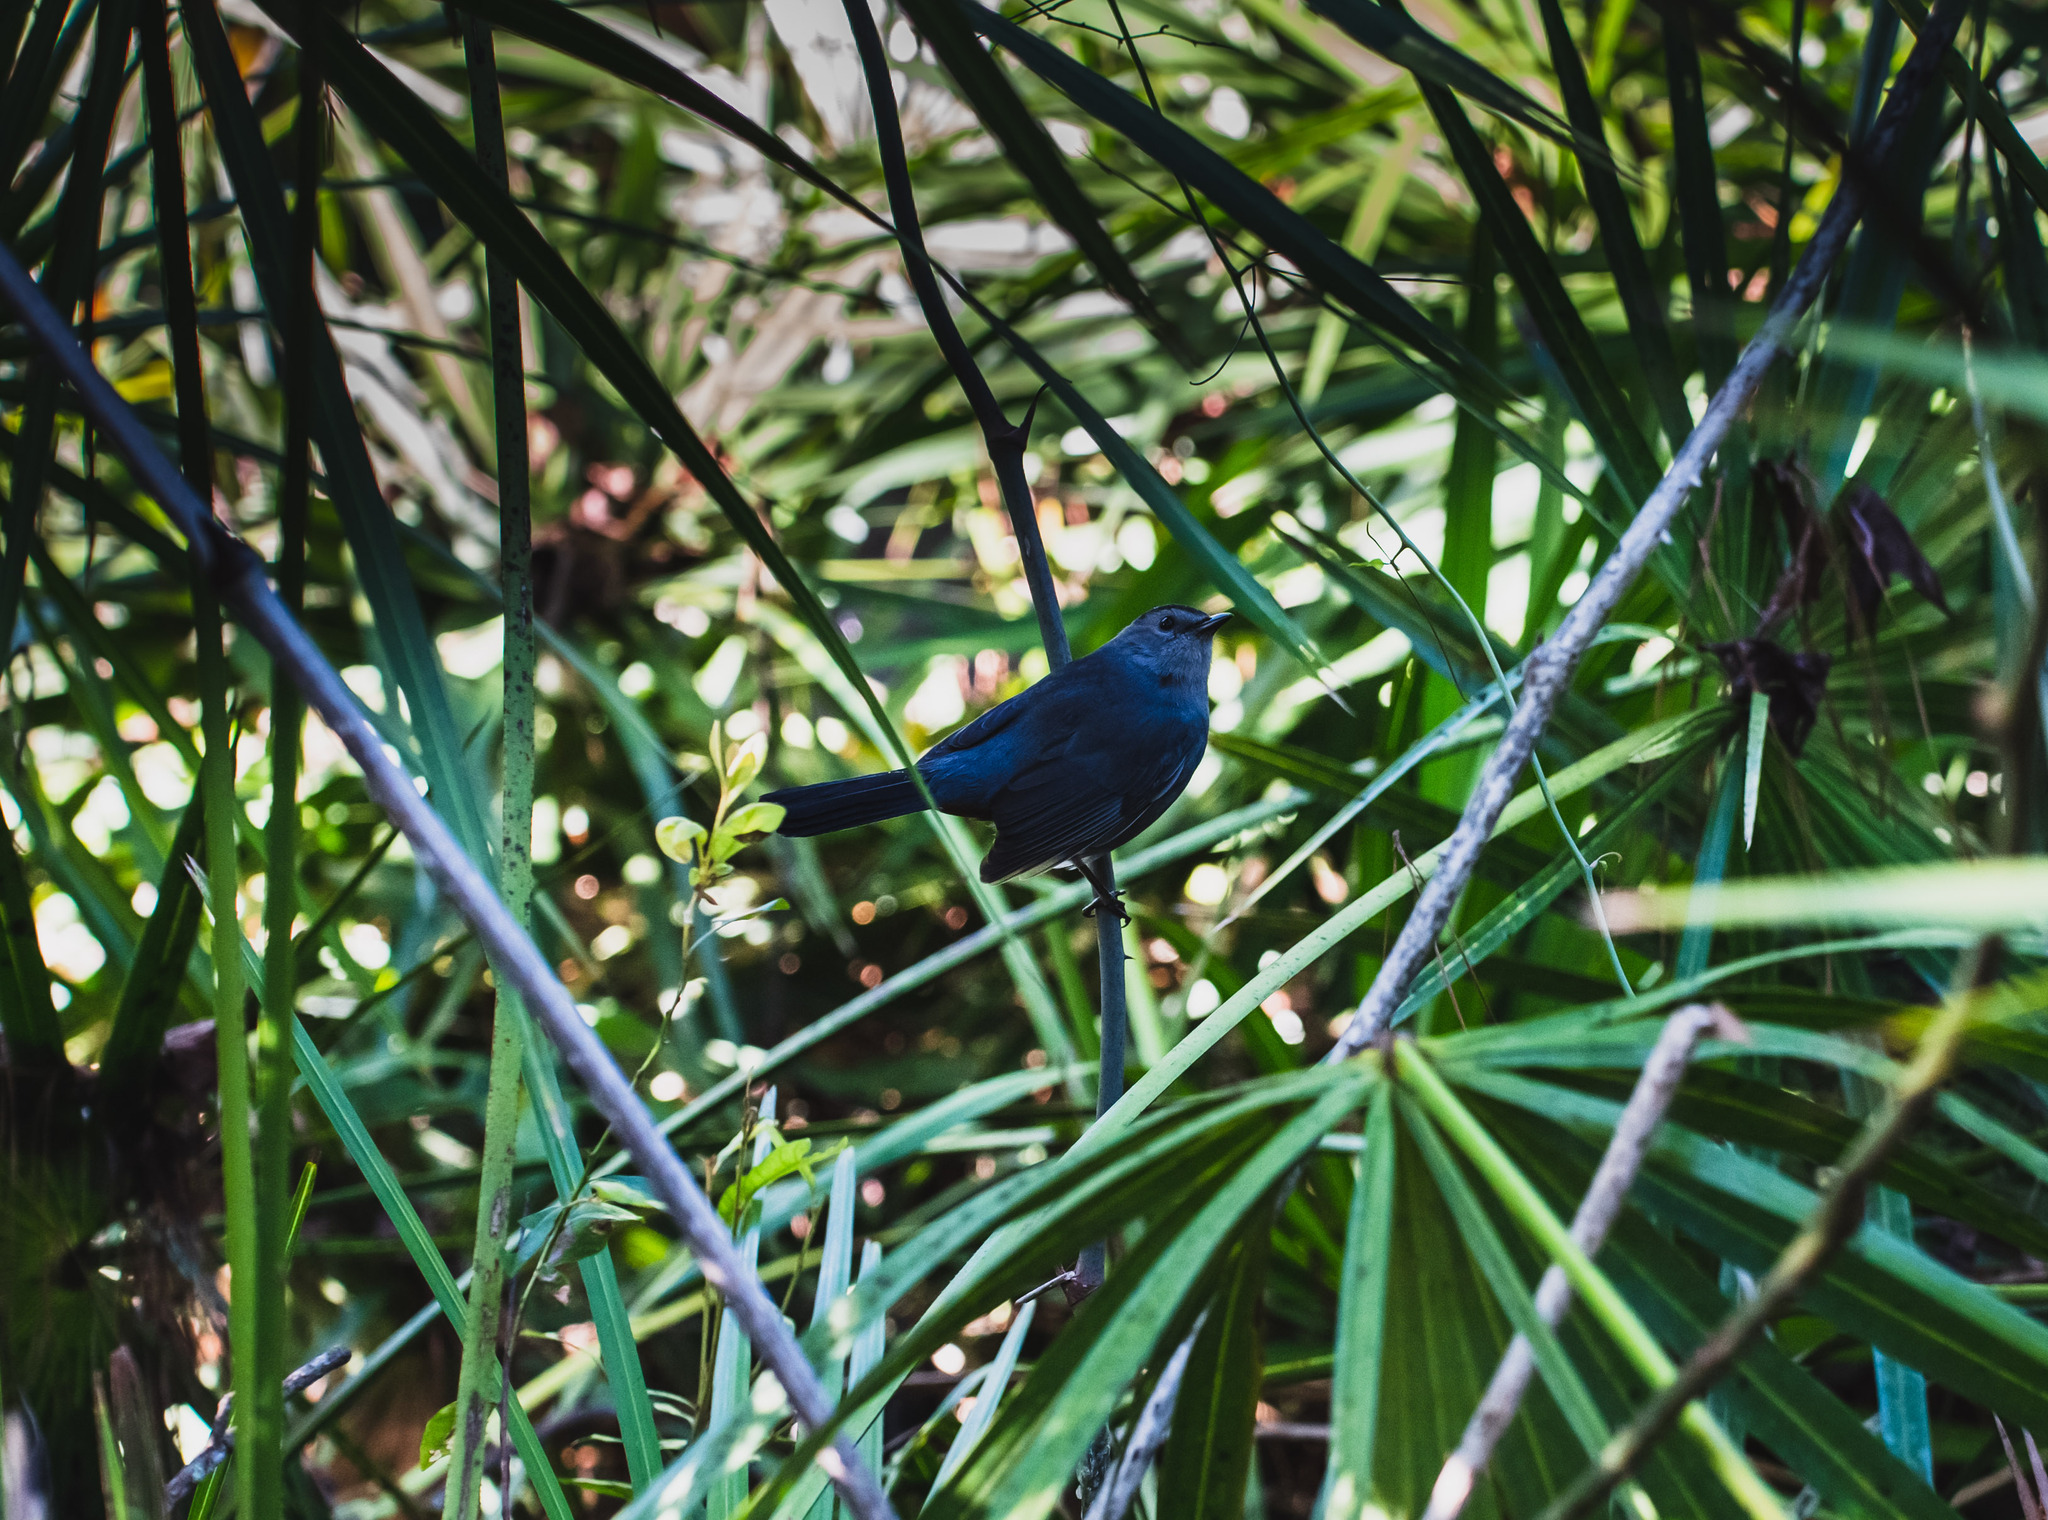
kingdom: Animalia
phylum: Chordata
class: Aves
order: Passeriformes
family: Mimidae
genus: Dumetella
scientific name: Dumetella carolinensis
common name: Gray catbird
